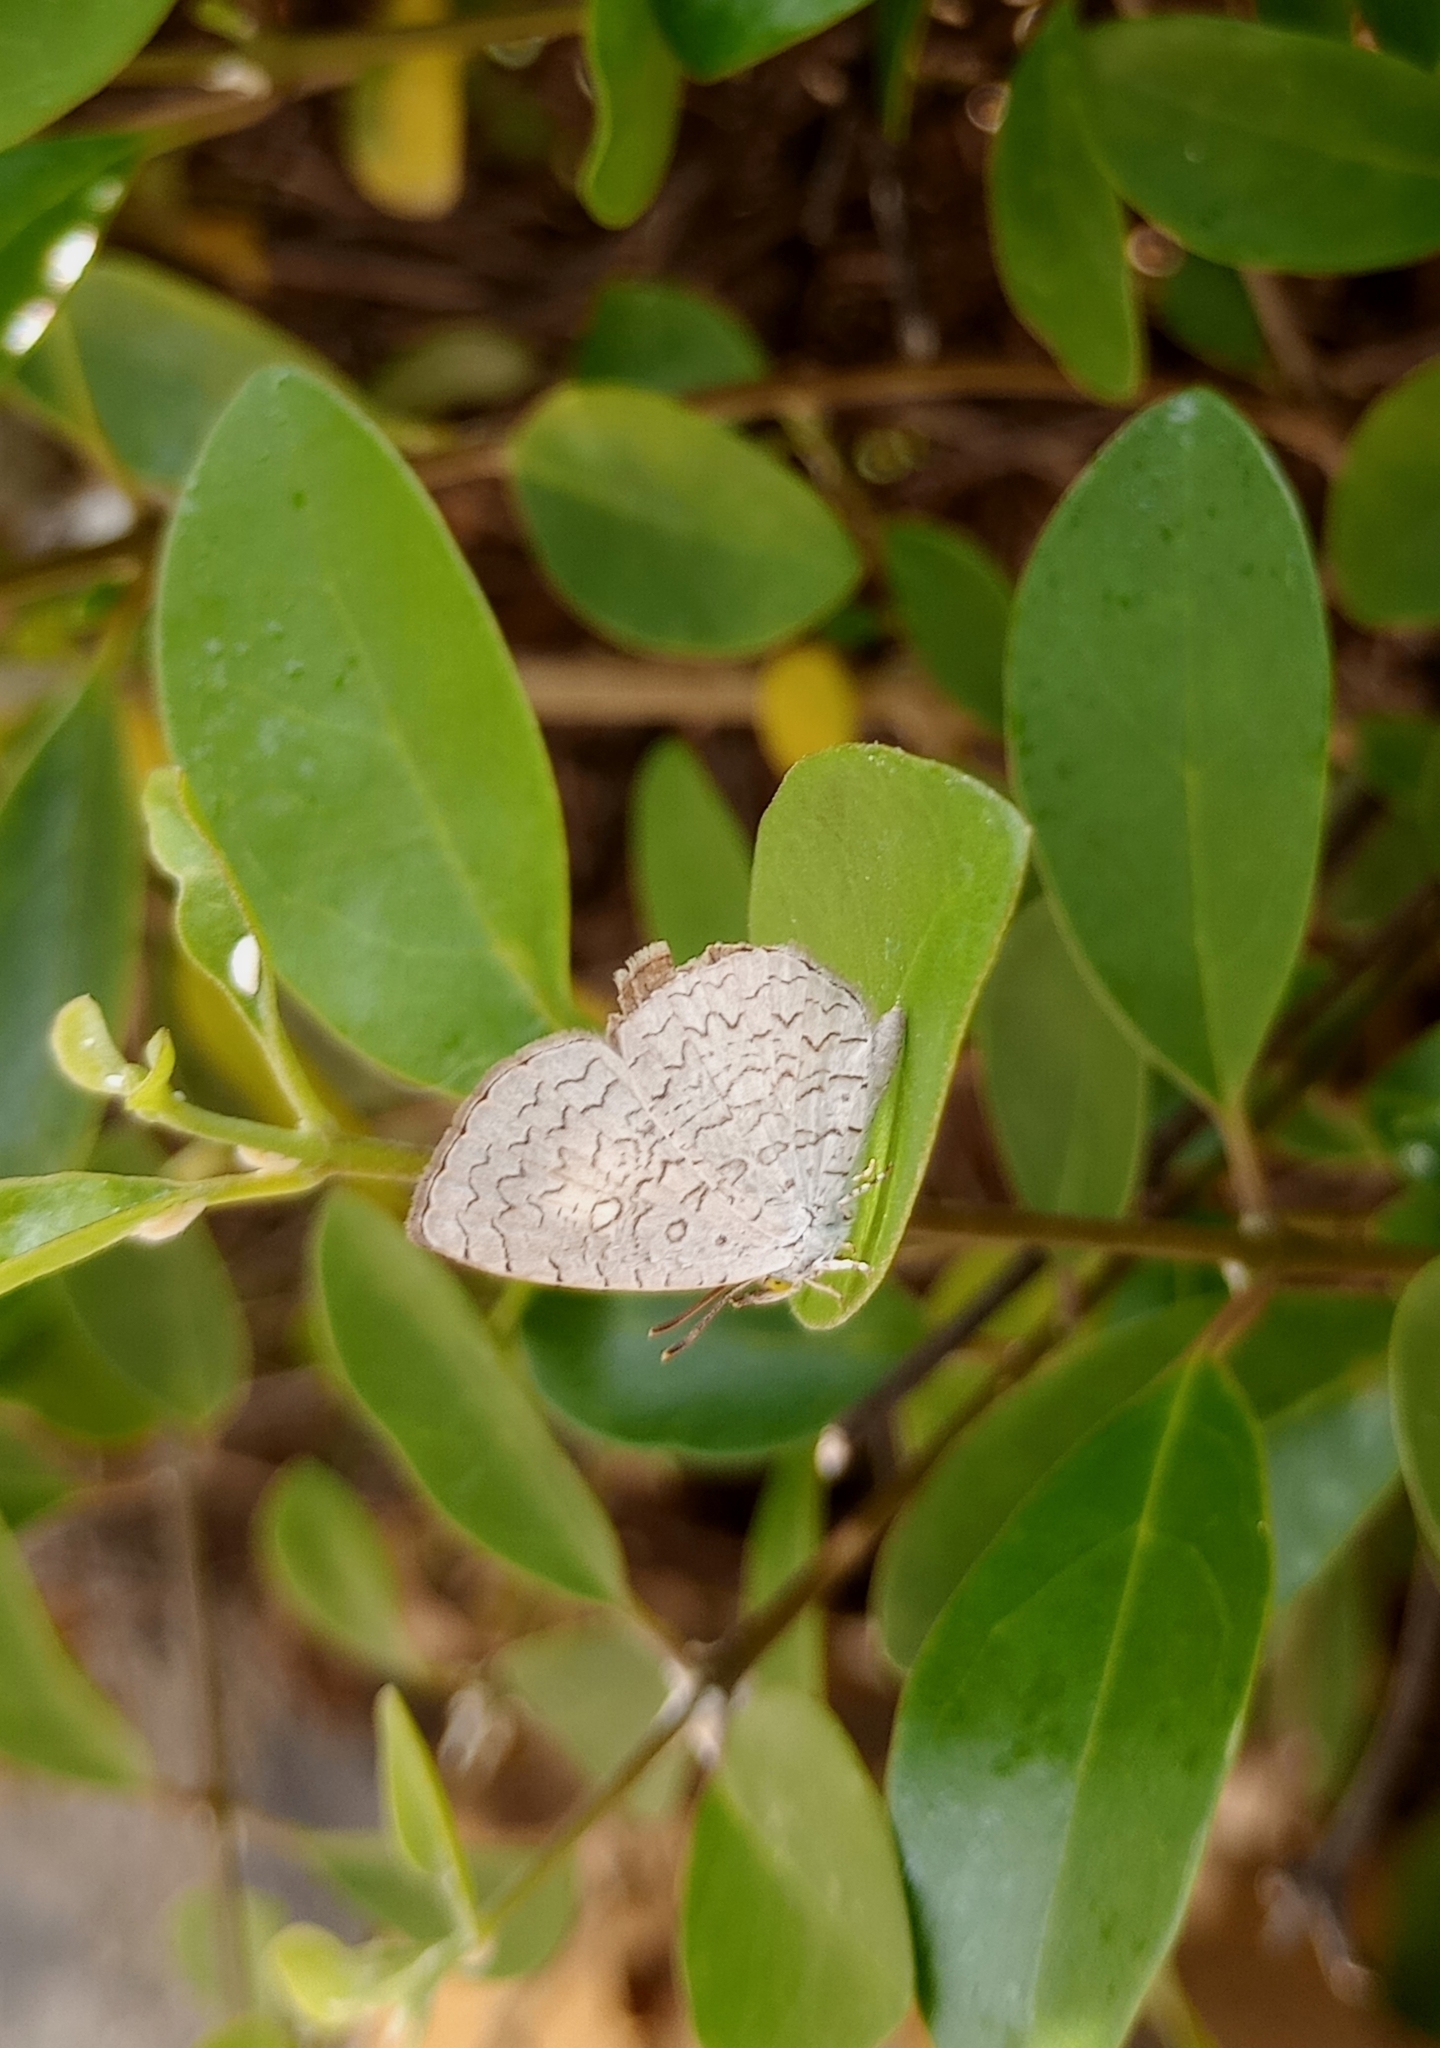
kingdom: Animalia
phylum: Arthropoda
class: Insecta
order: Lepidoptera
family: Lycaenidae
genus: Spalgis
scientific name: Spalgis epius
